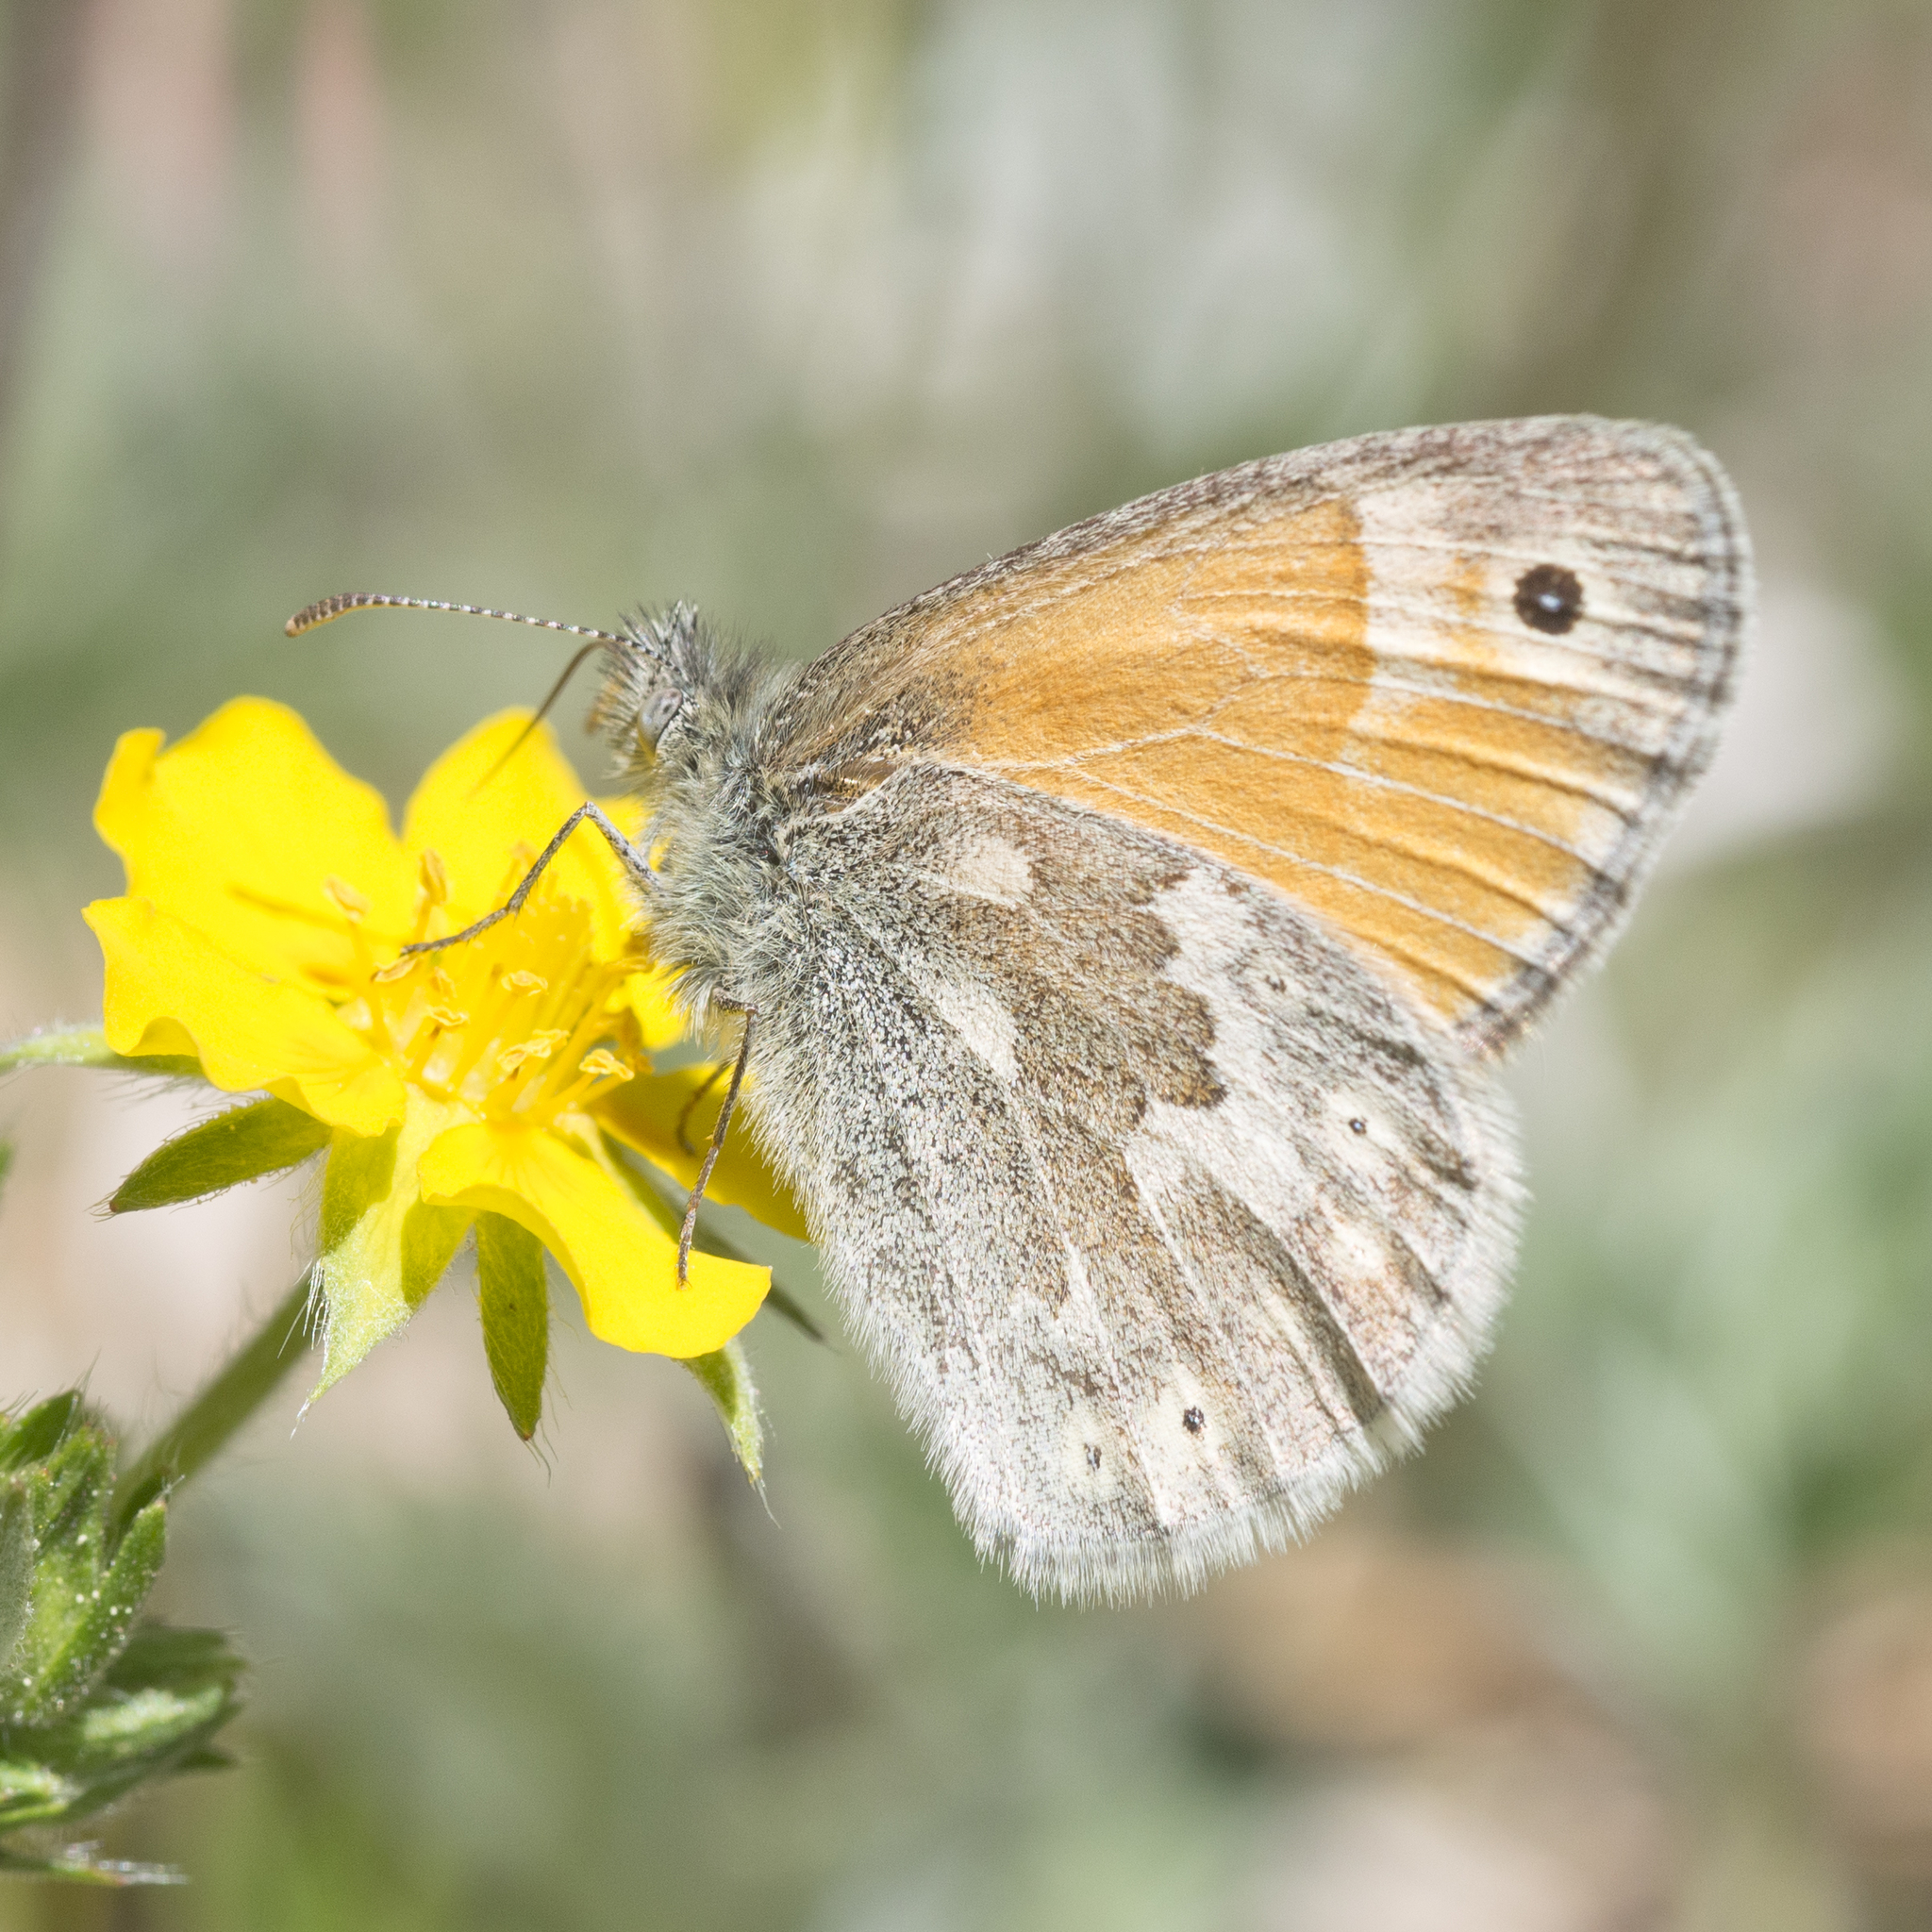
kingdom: Animalia
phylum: Arthropoda
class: Insecta
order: Lepidoptera
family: Nymphalidae
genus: Coenonympha
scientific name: Coenonympha california
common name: Common ringlet
